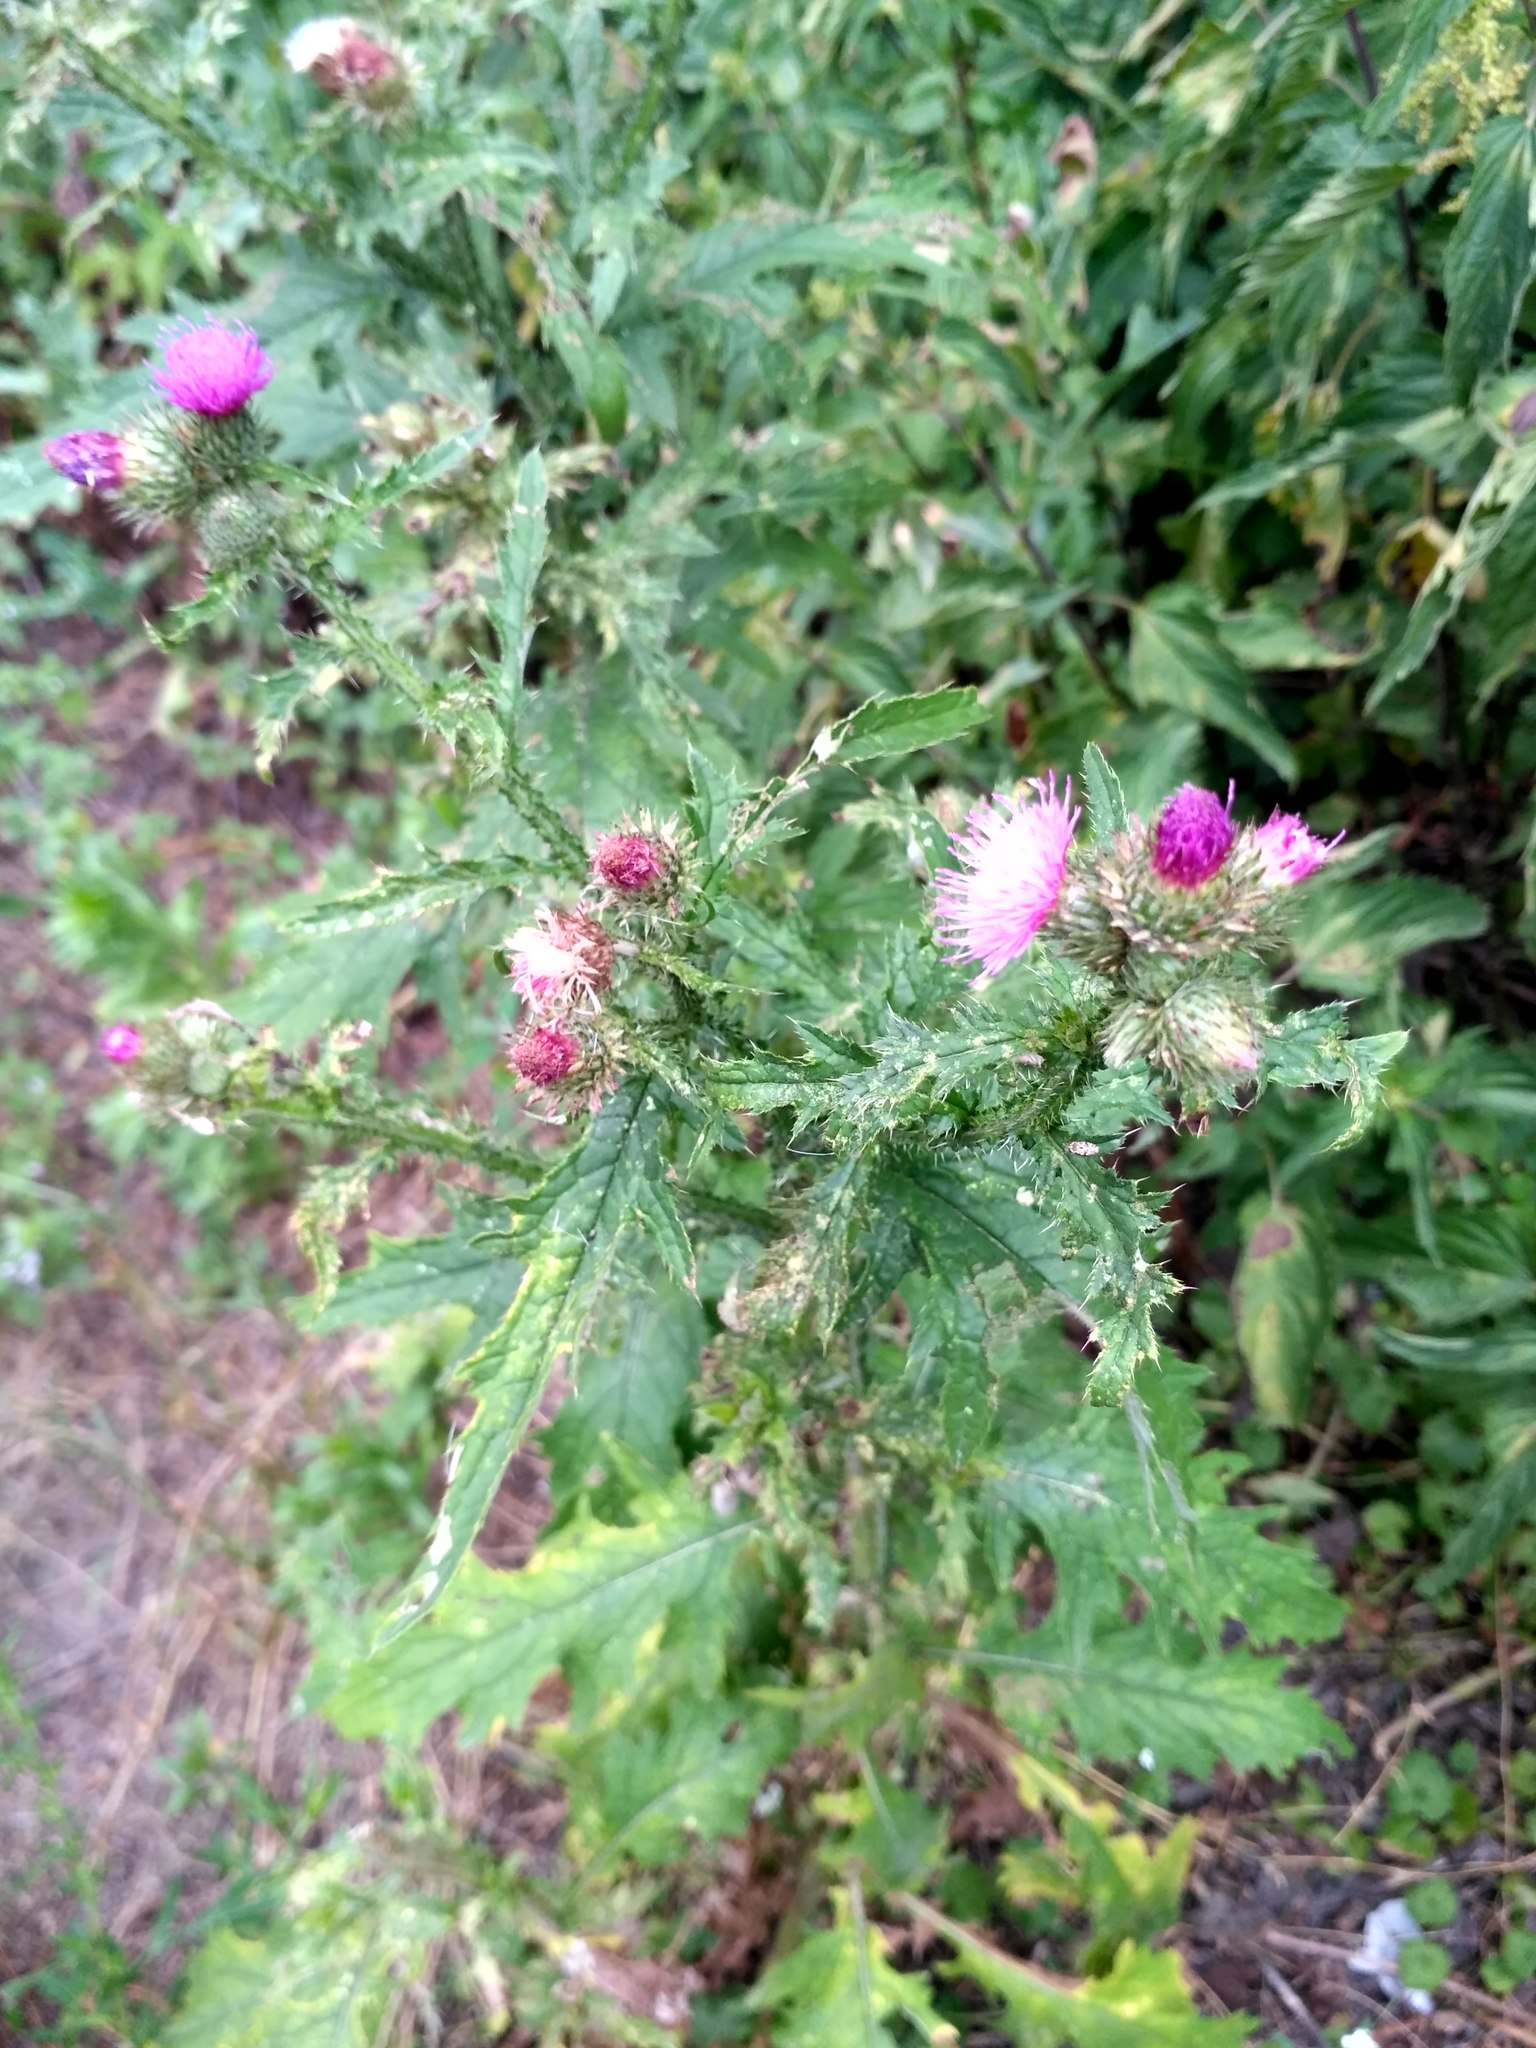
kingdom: Plantae
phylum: Tracheophyta
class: Magnoliopsida
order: Asterales
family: Asteraceae
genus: Carduus
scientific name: Carduus crispus
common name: Welted thistle
